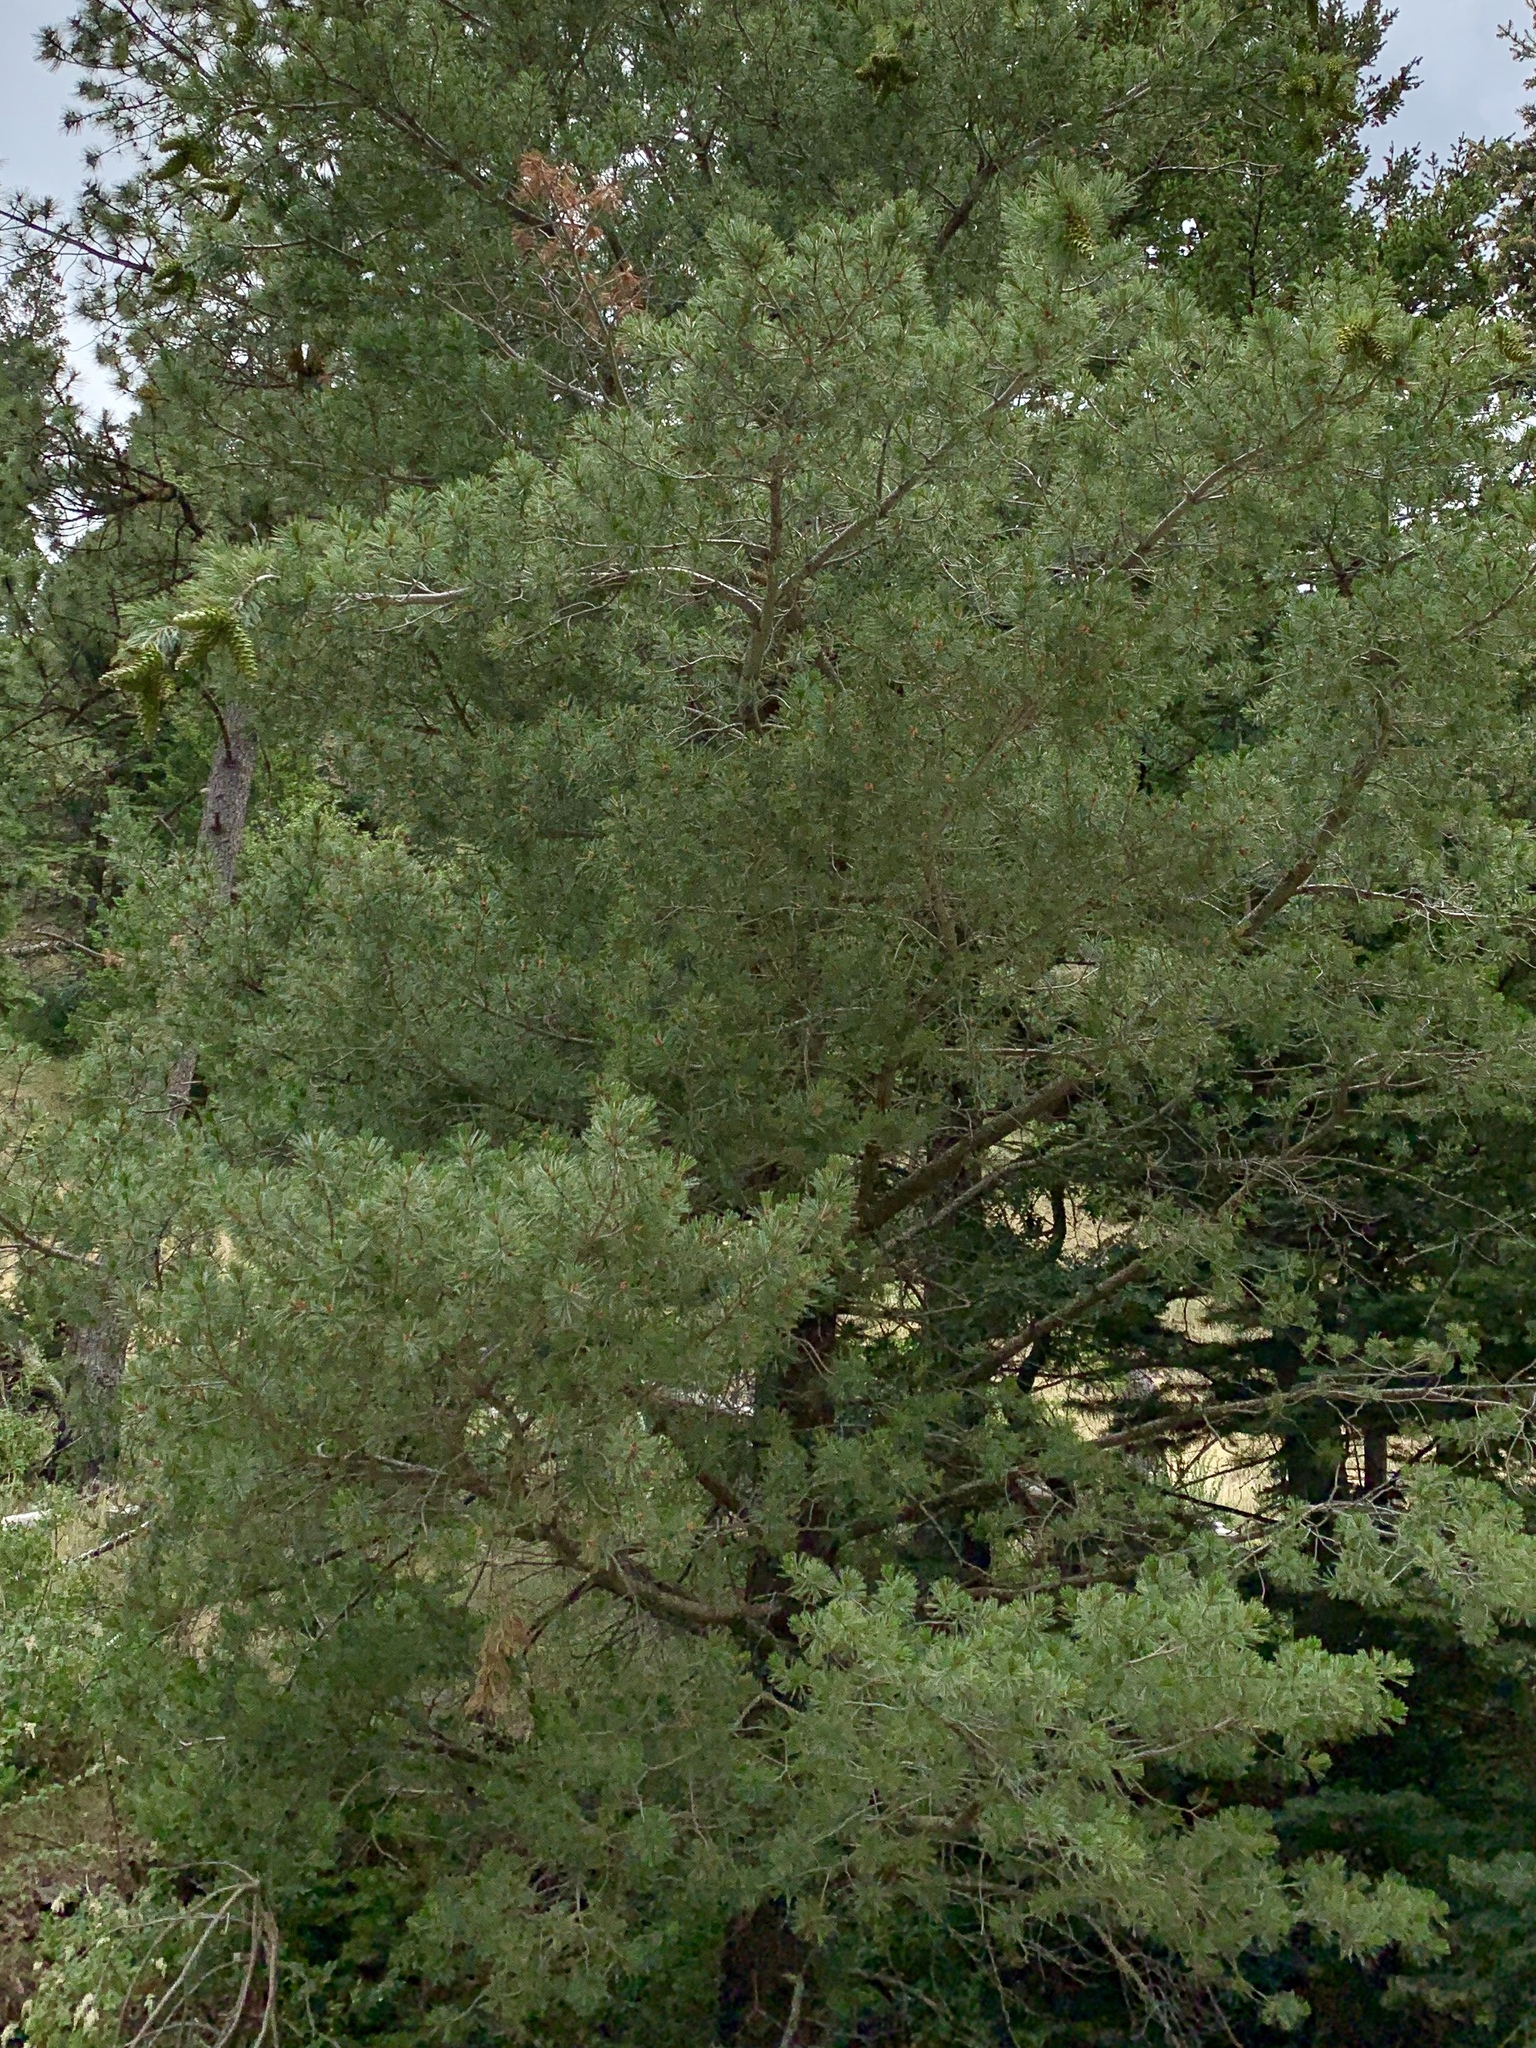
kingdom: Plantae
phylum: Tracheophyta
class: Pinopsida
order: Pinales
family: Pinaceae
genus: Pinus
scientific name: Pinus strobiformis
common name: Southwestern white pine
